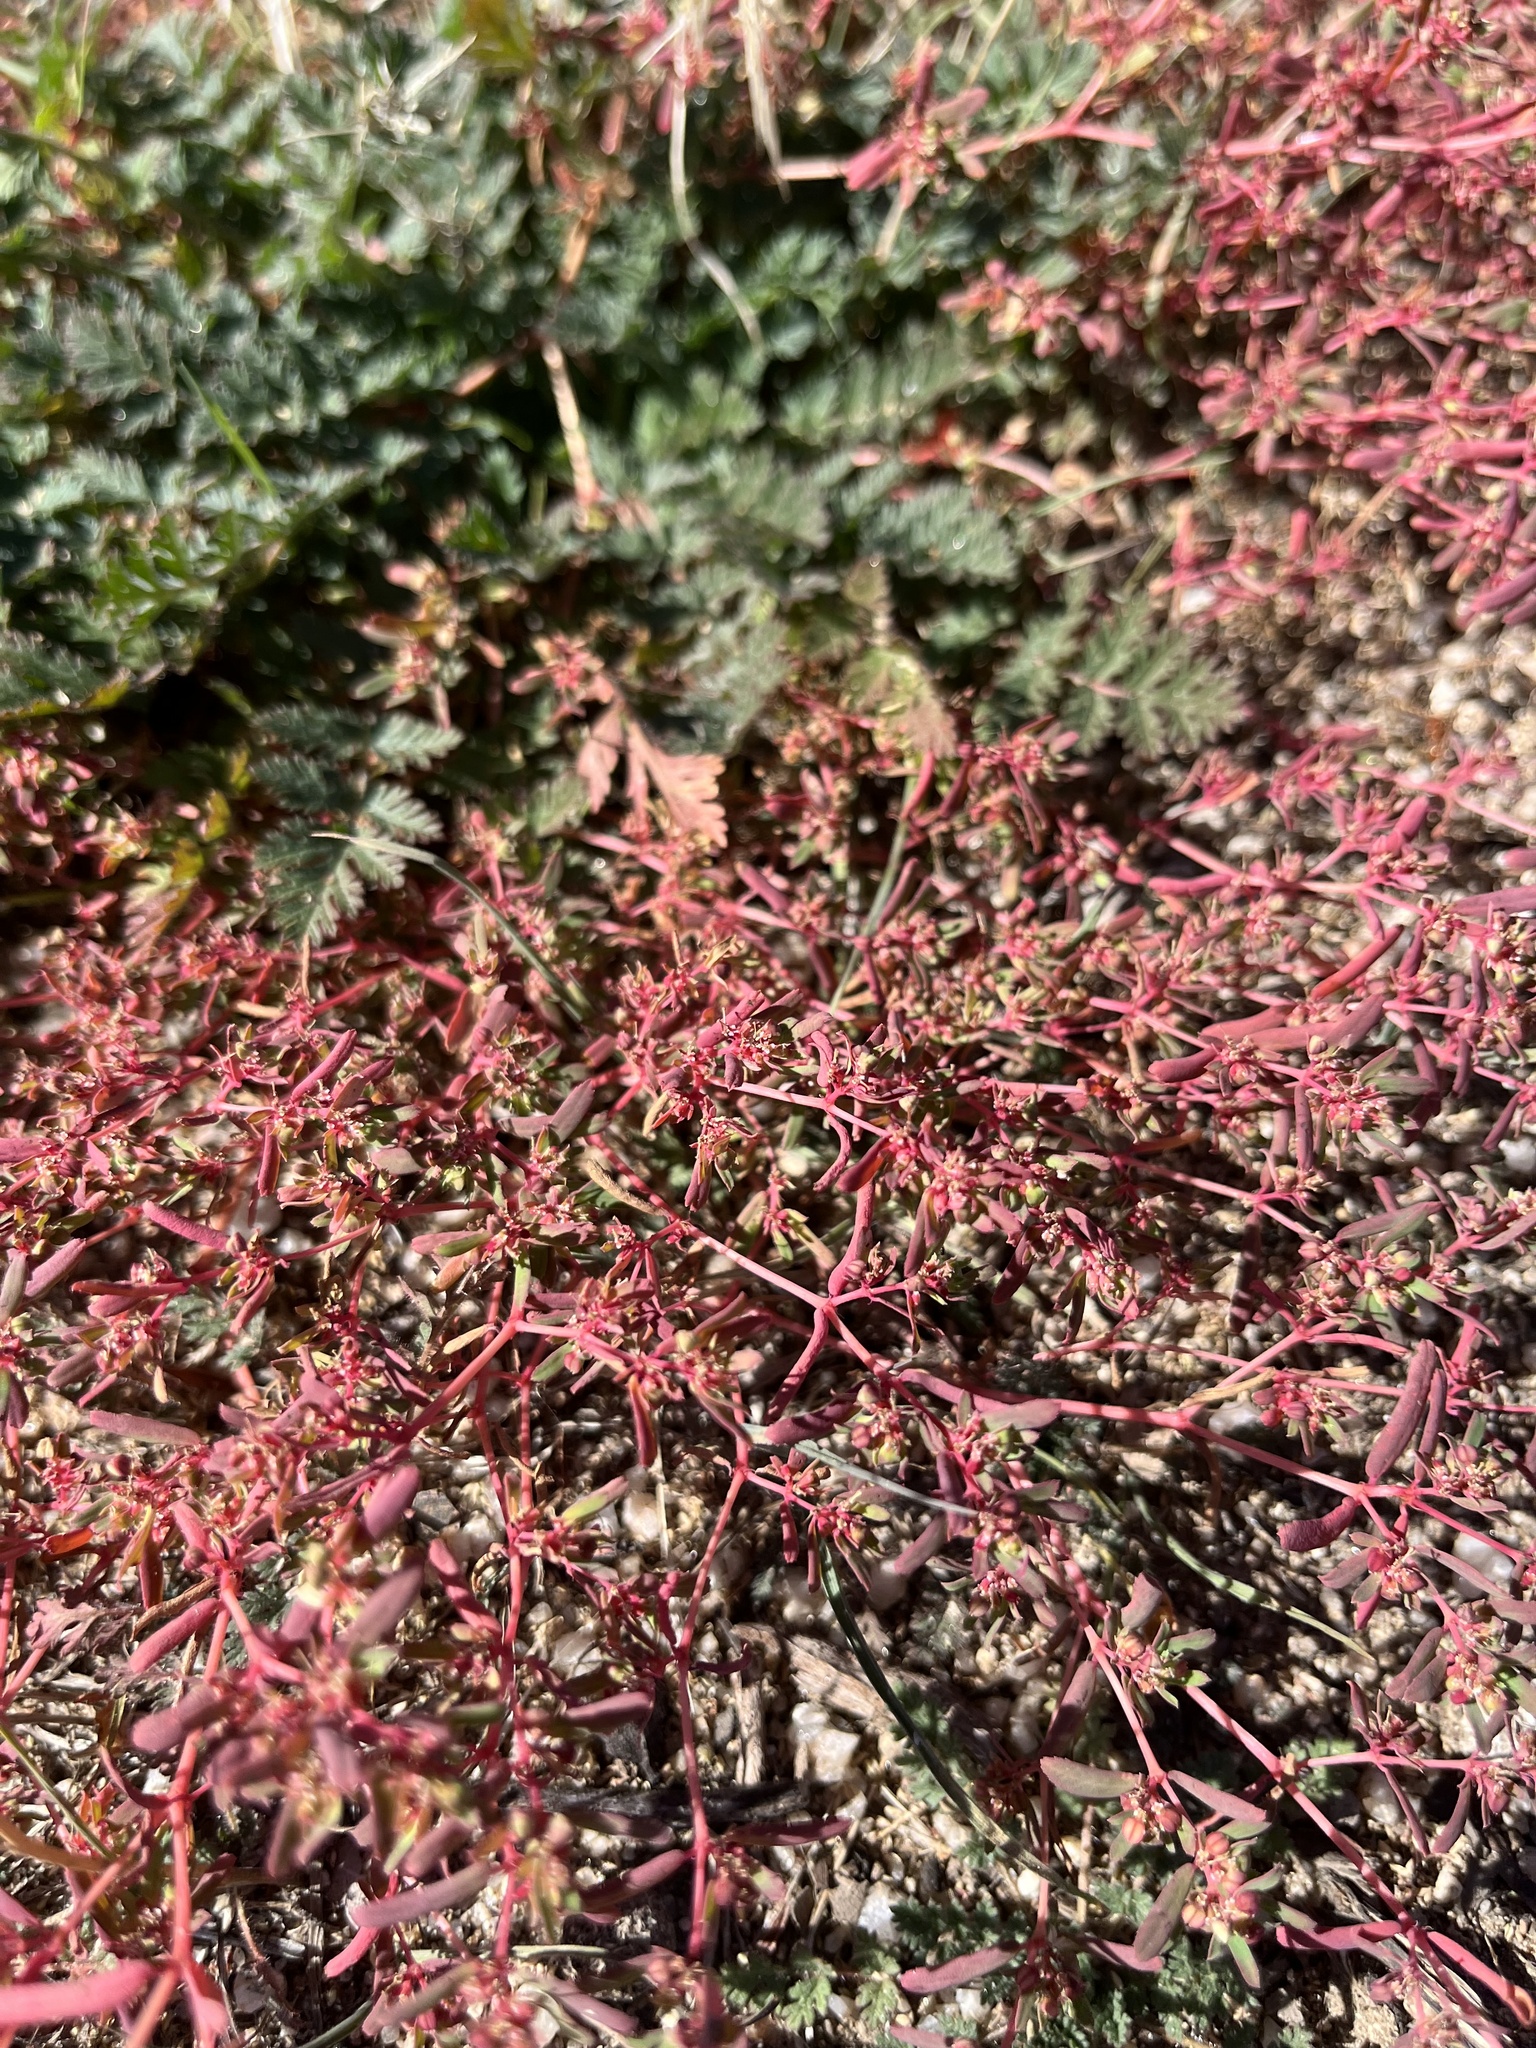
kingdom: Plantae
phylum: Tracheophyta
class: Magnoliopsida
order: Malpighiales
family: Euphorbiaceae
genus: Euphorbia
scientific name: Euphorbia serpillifolia
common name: Thyme-leaf spurge
